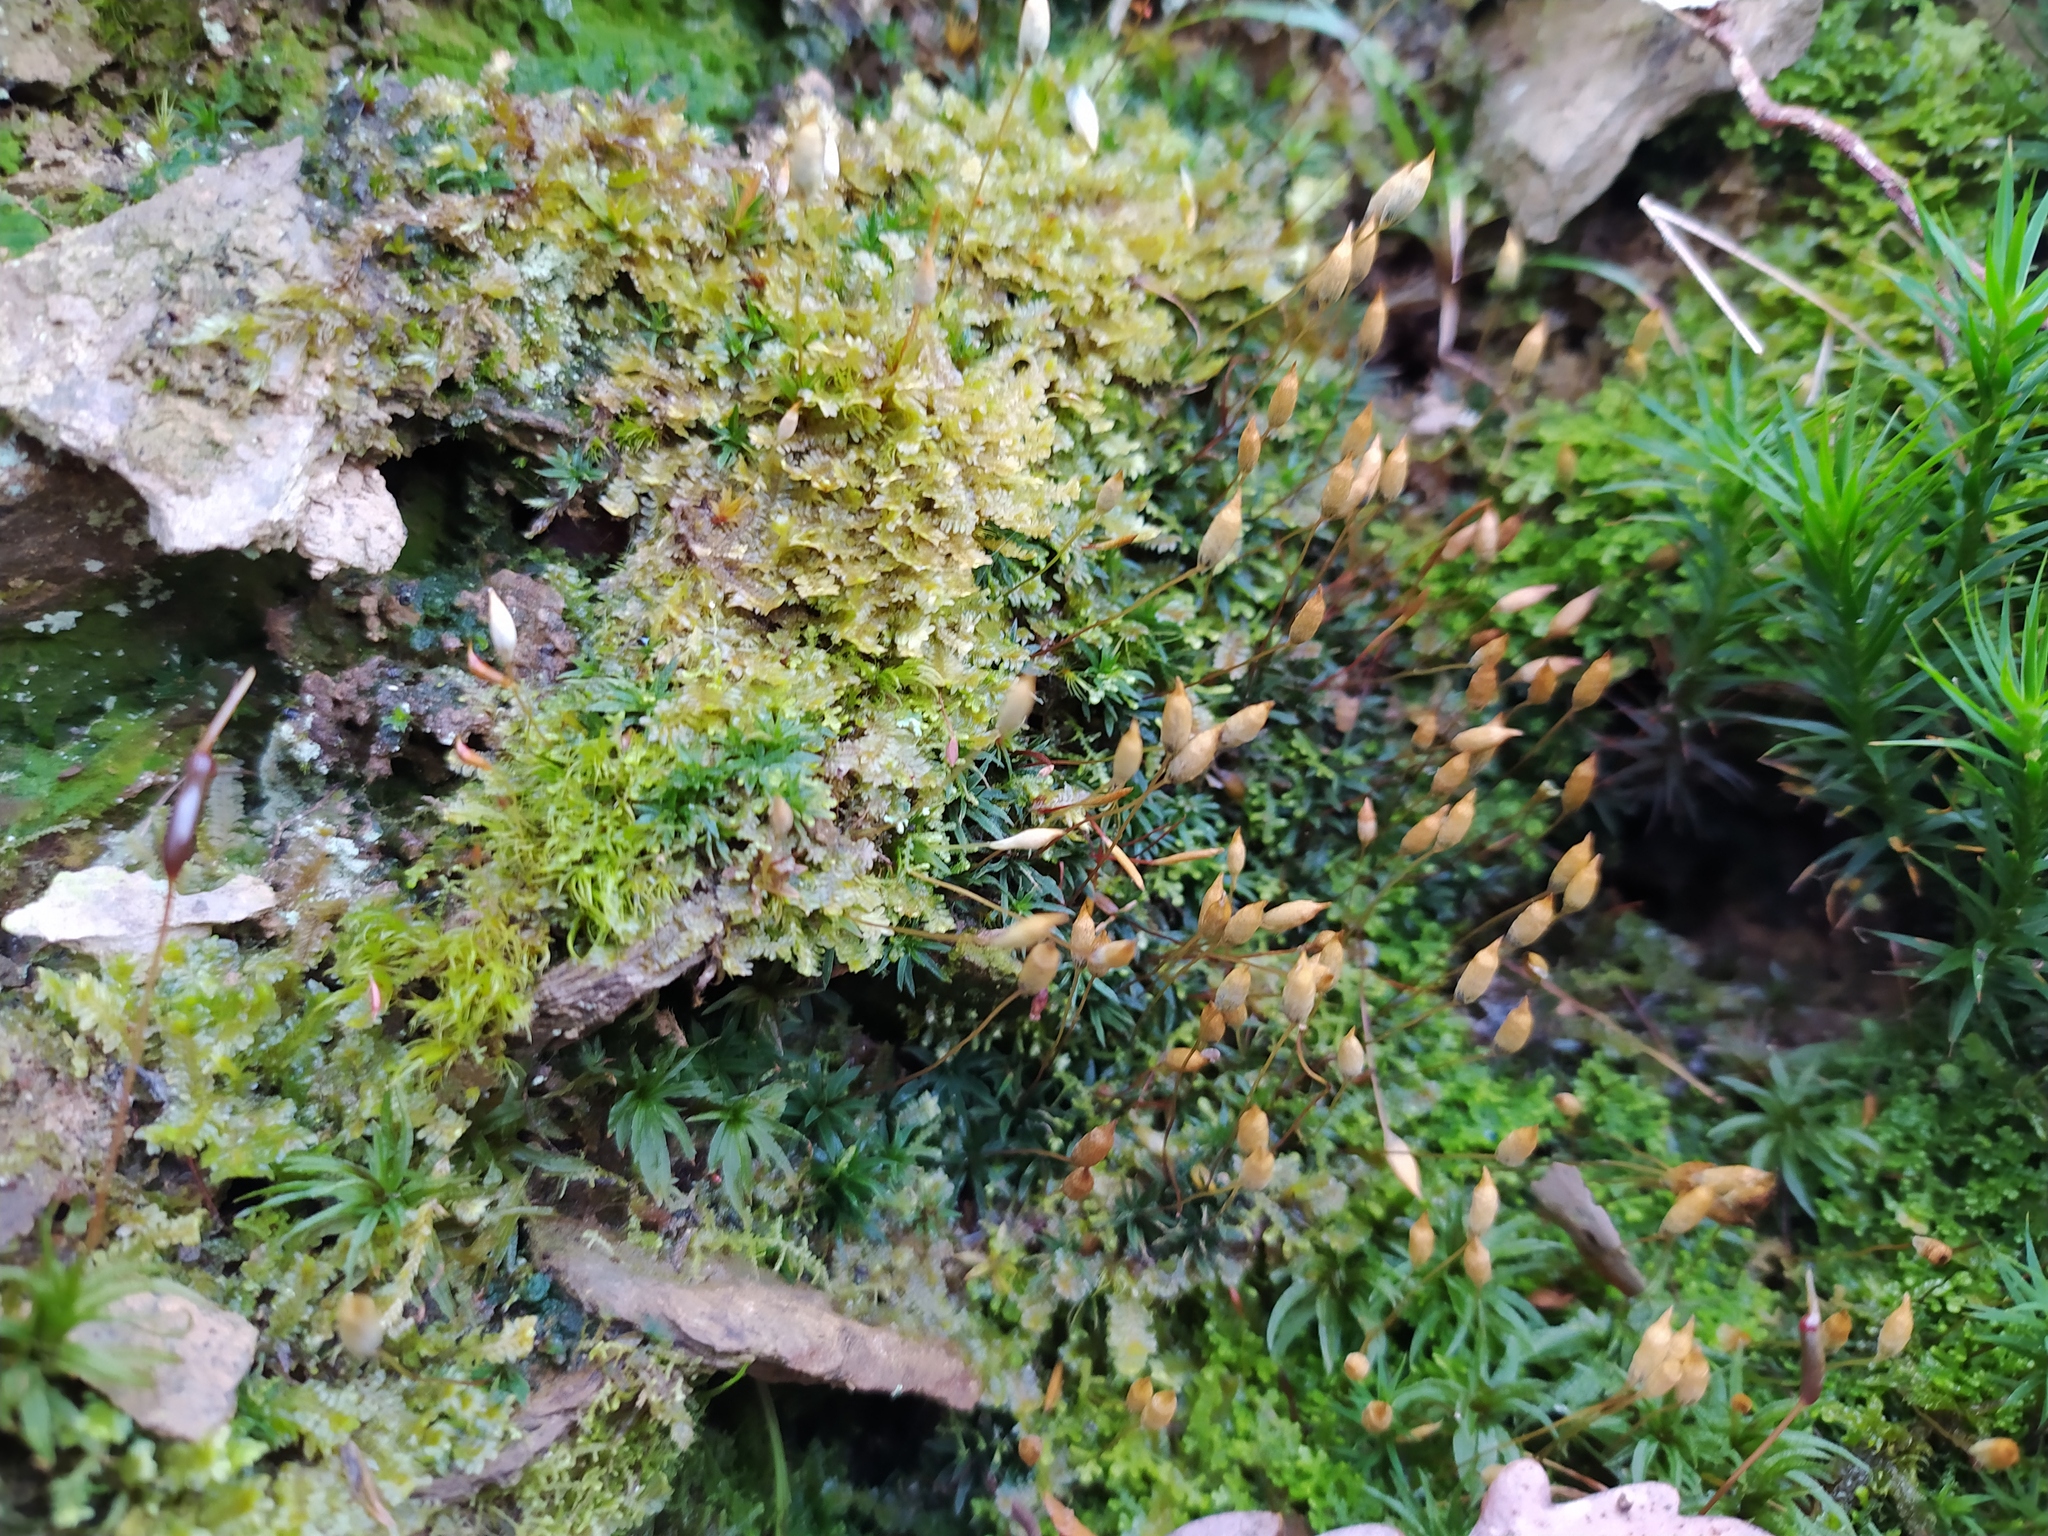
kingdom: Plantae
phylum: Bryophyta
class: Polytrichopsida
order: Polytrichales
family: Polytrichaceae
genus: Pogonatum
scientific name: Pogonatum aloides
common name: Aloe haircap
